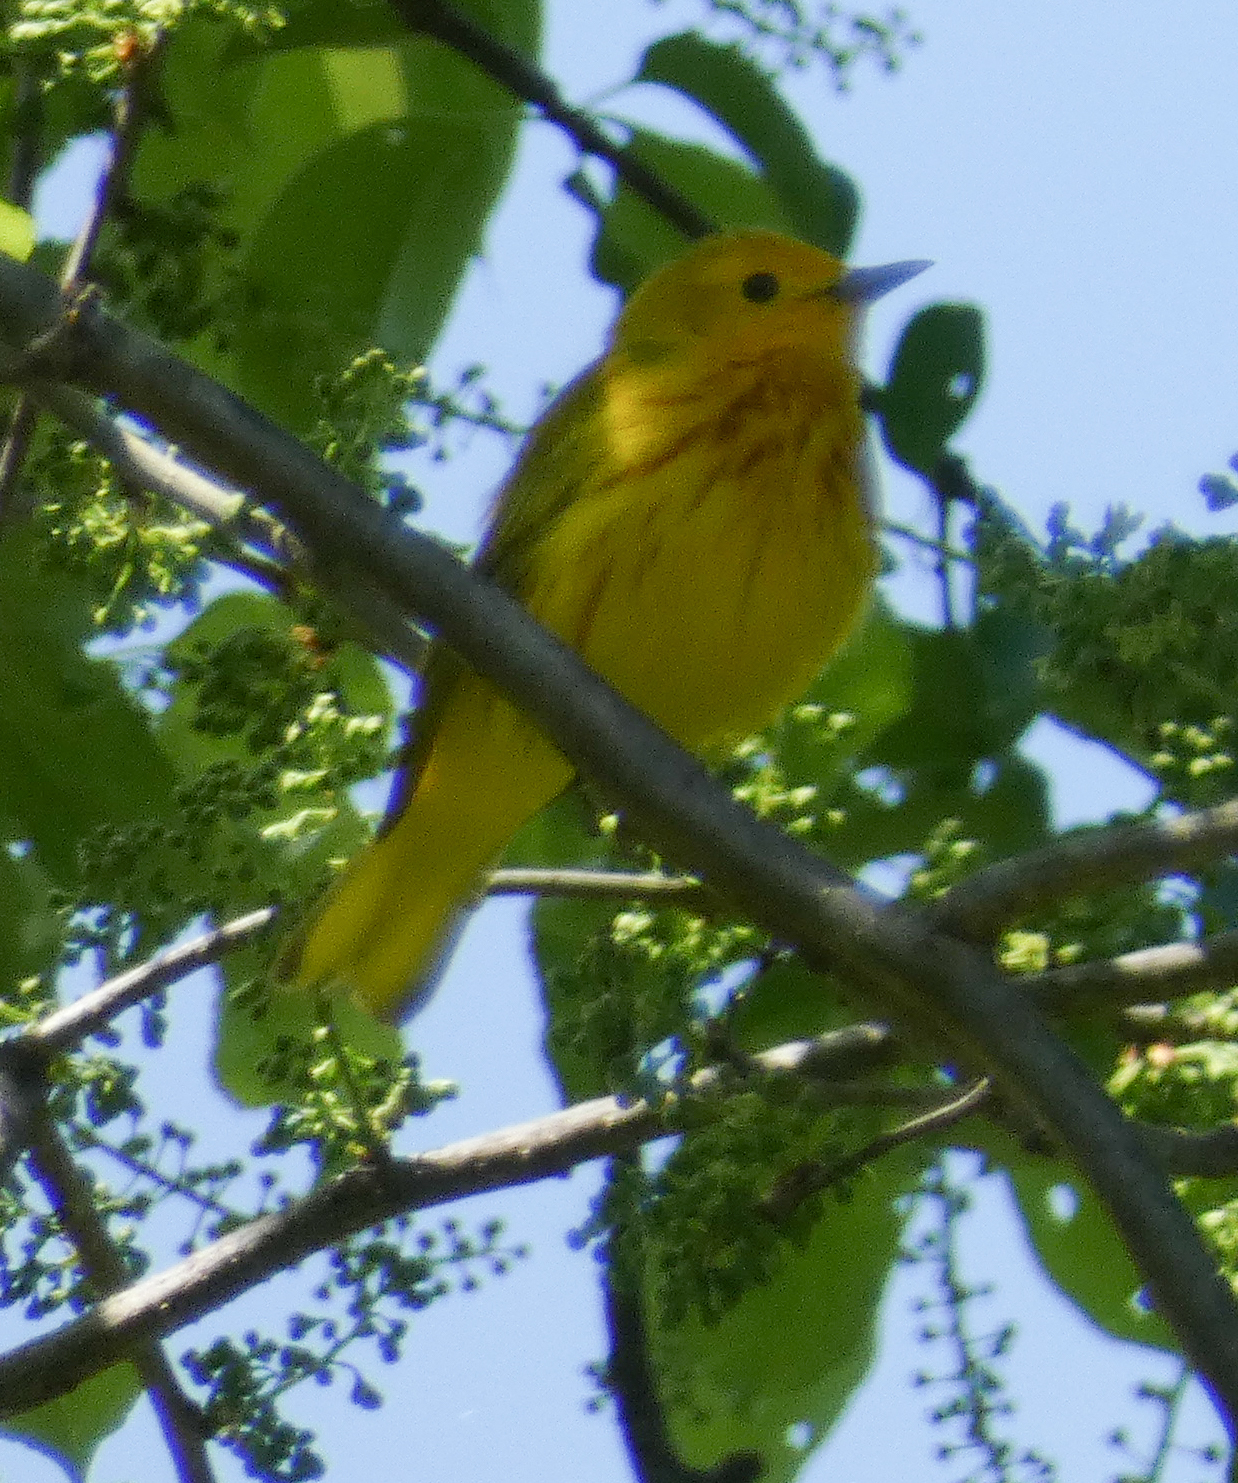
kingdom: Animalia
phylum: Chordata
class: Aves
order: Passeriformes
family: Parulidae
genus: Setophaga
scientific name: Setophaga petechia
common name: Yellow warbler
